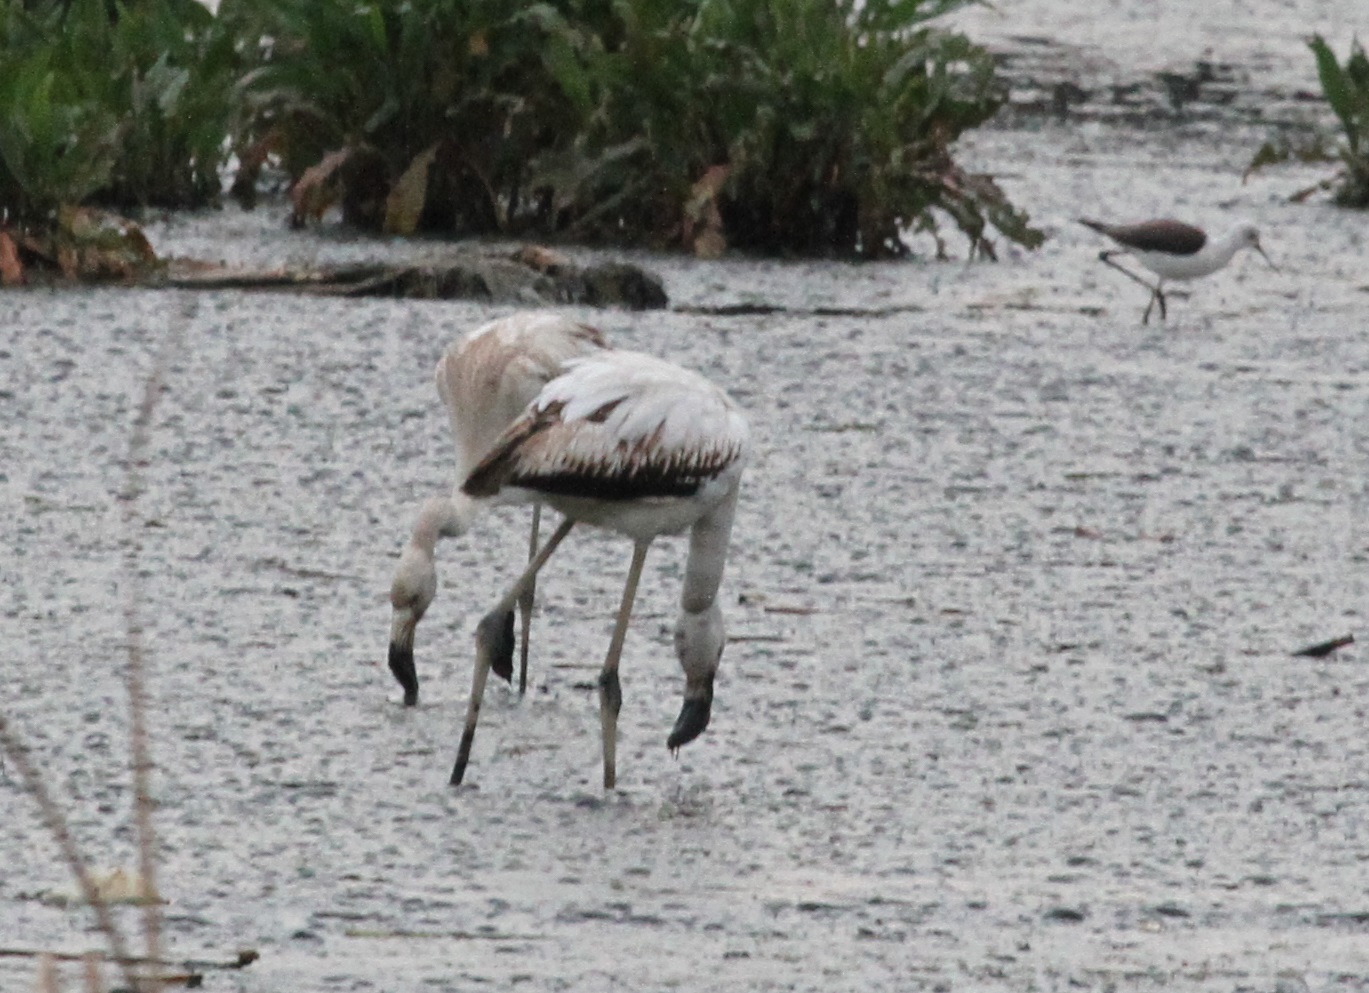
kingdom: Animalia
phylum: Chordata
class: Aves
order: Phoenicopteriformes
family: Phoenicopteridae
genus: Phoenicopterus
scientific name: Phoenicopterus roseus
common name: Greater flamingo
